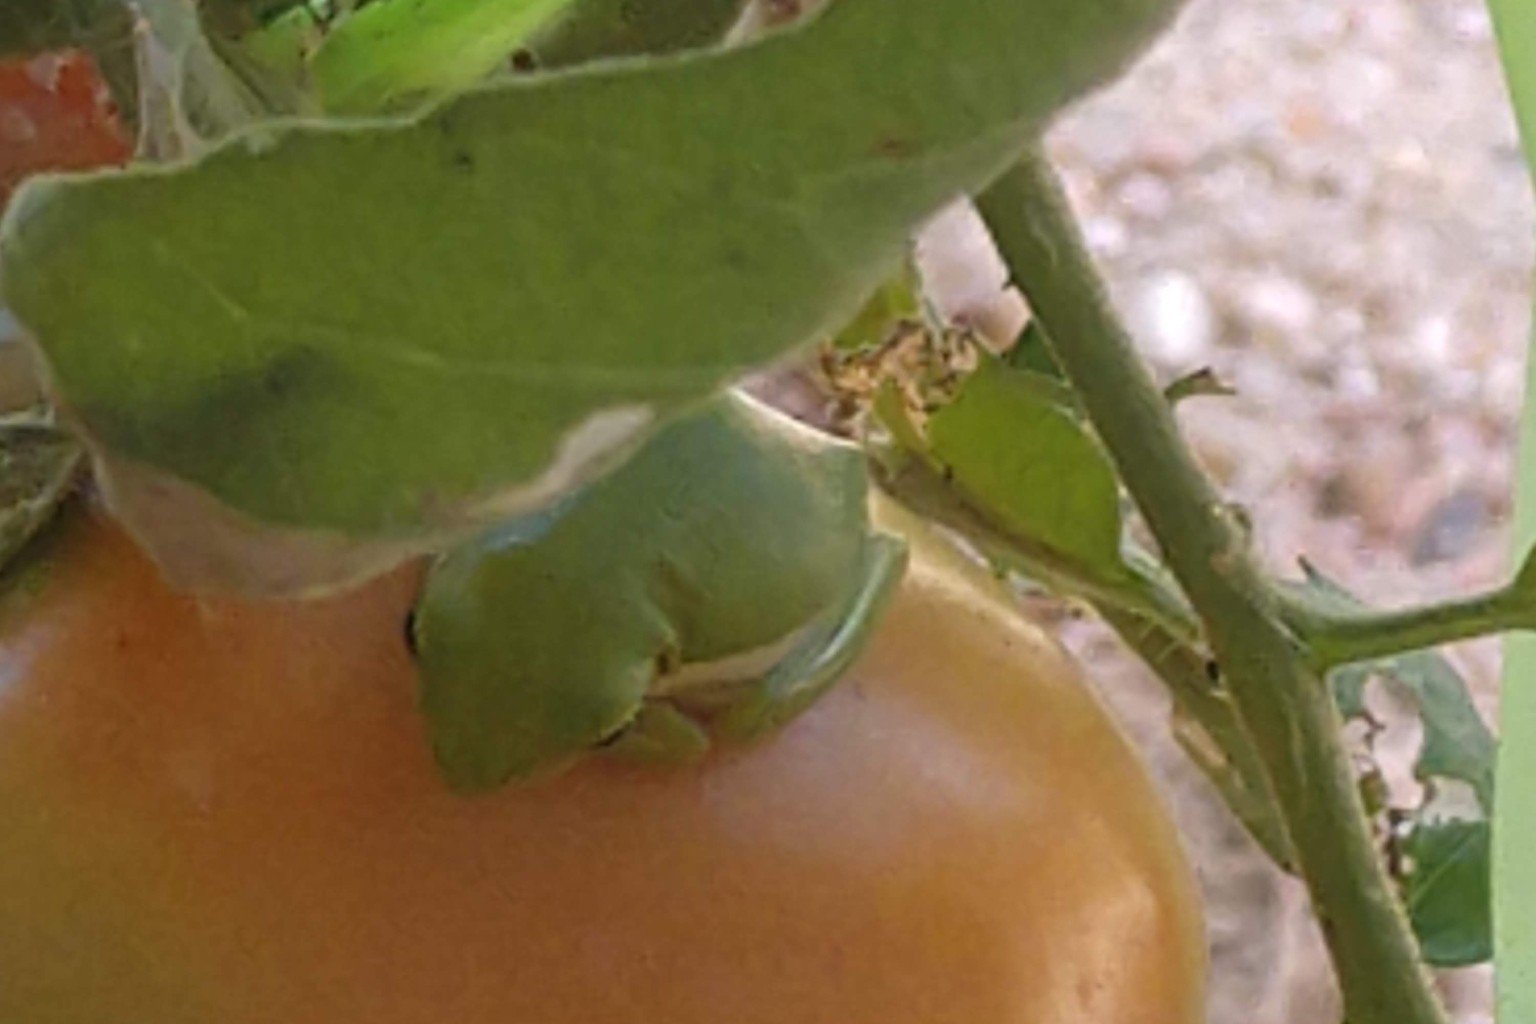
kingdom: Animalia
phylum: Chordata
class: Amphibia
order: Anura
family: Hylidae
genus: Dryophytes
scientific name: Dryophytes cinereus
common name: Green treefrog
